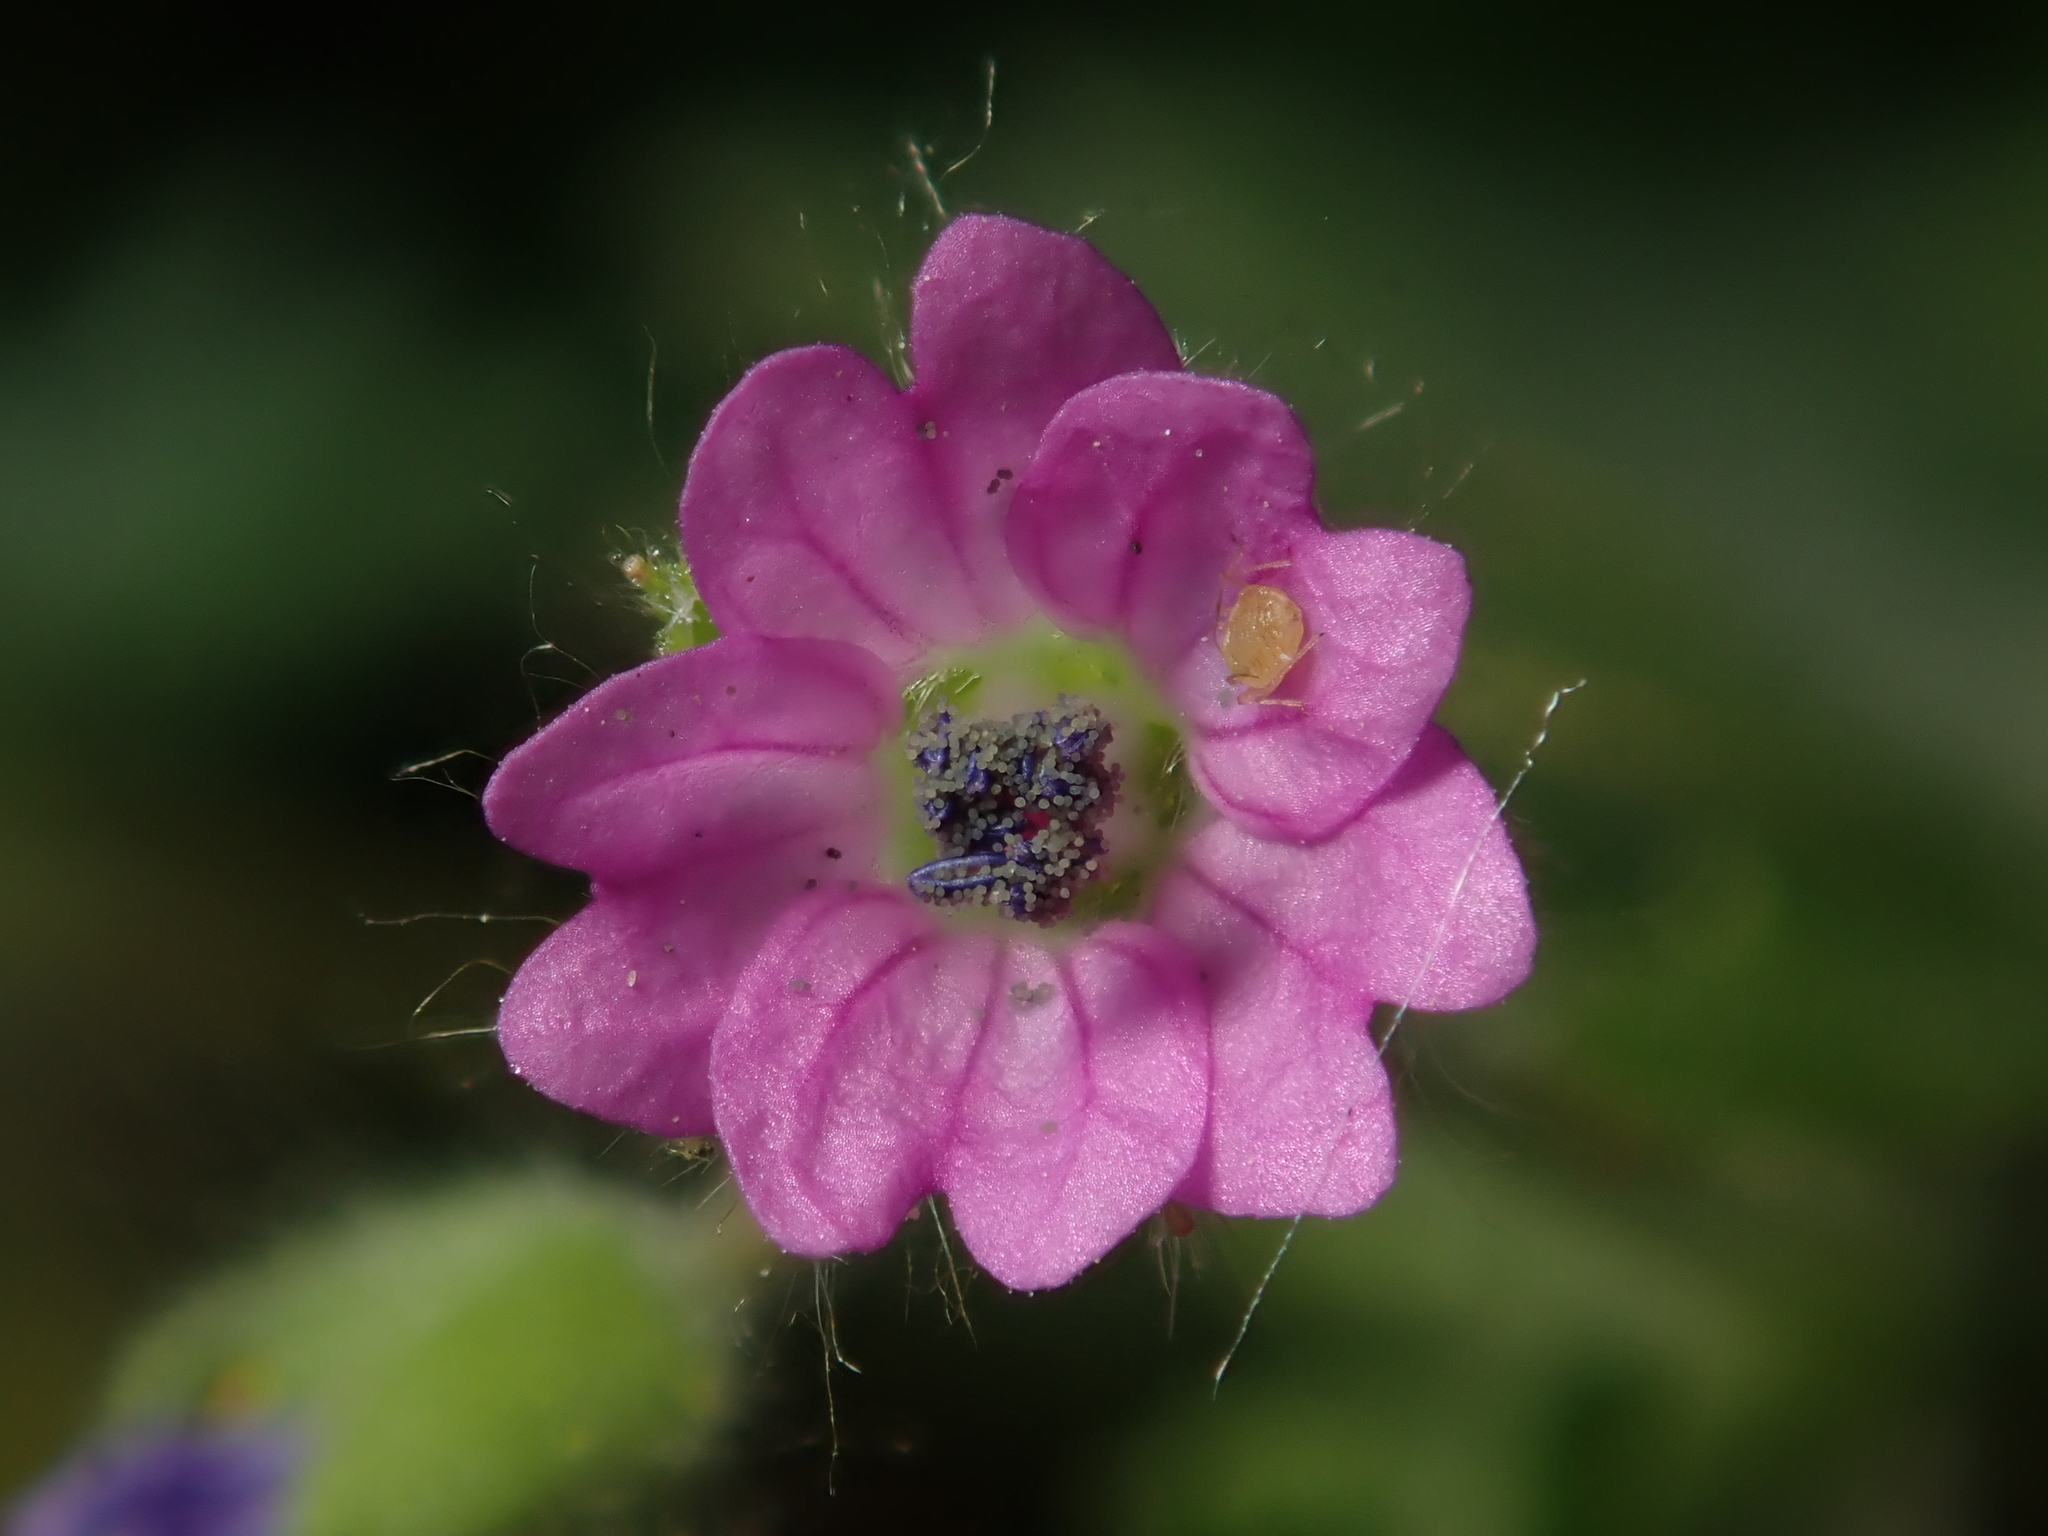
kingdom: Plantae
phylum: Tracheophyta
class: Magnoliopsida
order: Geraniales
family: Geraniaceae
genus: Geranium
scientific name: Geranium molle
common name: Dove's-foot crane's-bill
